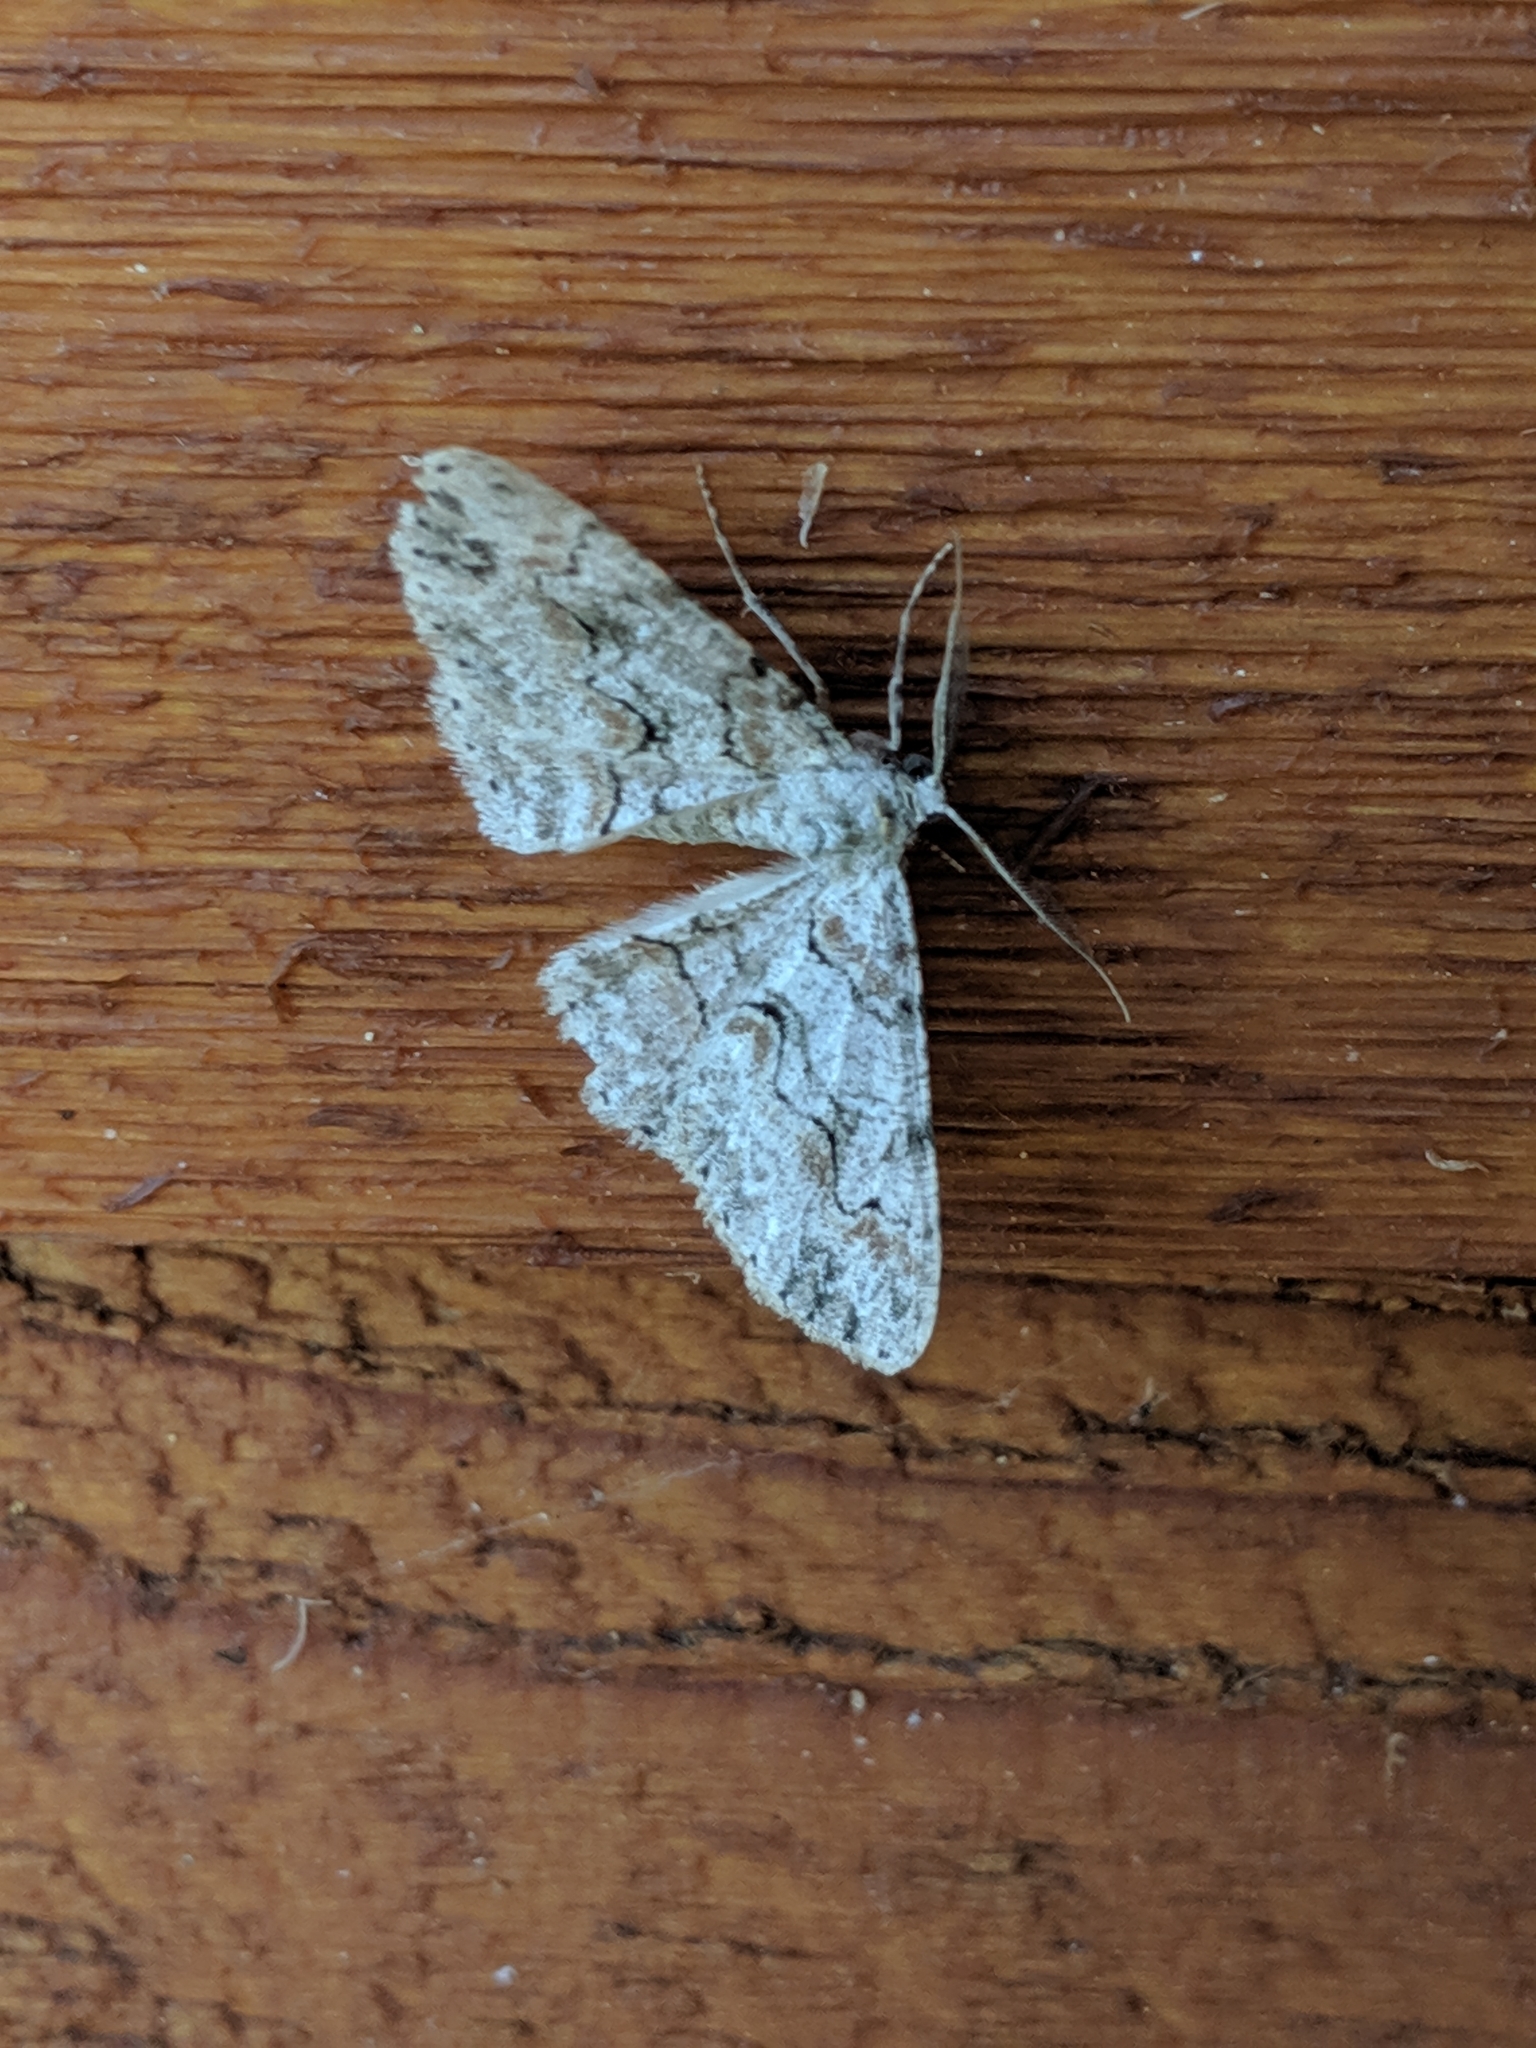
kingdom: Animalia
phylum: Arthropoda
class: Insecta
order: Lepidoptera
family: Geometridae
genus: Iridopsis
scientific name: Iridopsis defectaria
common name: Brown-shaded gray
